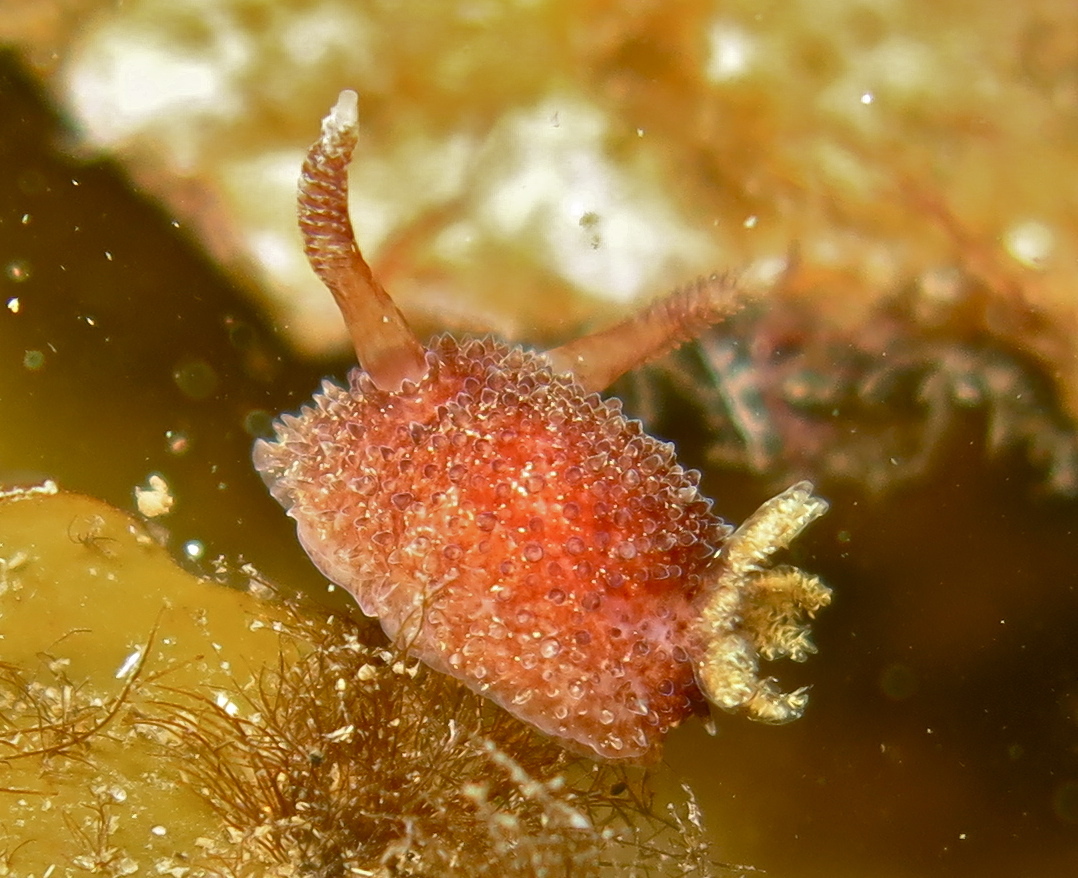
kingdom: Animalia
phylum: Mollusca
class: Gastropoda
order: Nudibranchia
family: Onchidorididae
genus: Acanthodoris
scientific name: Acanthodoris pilosa
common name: Hairy spiny doris
